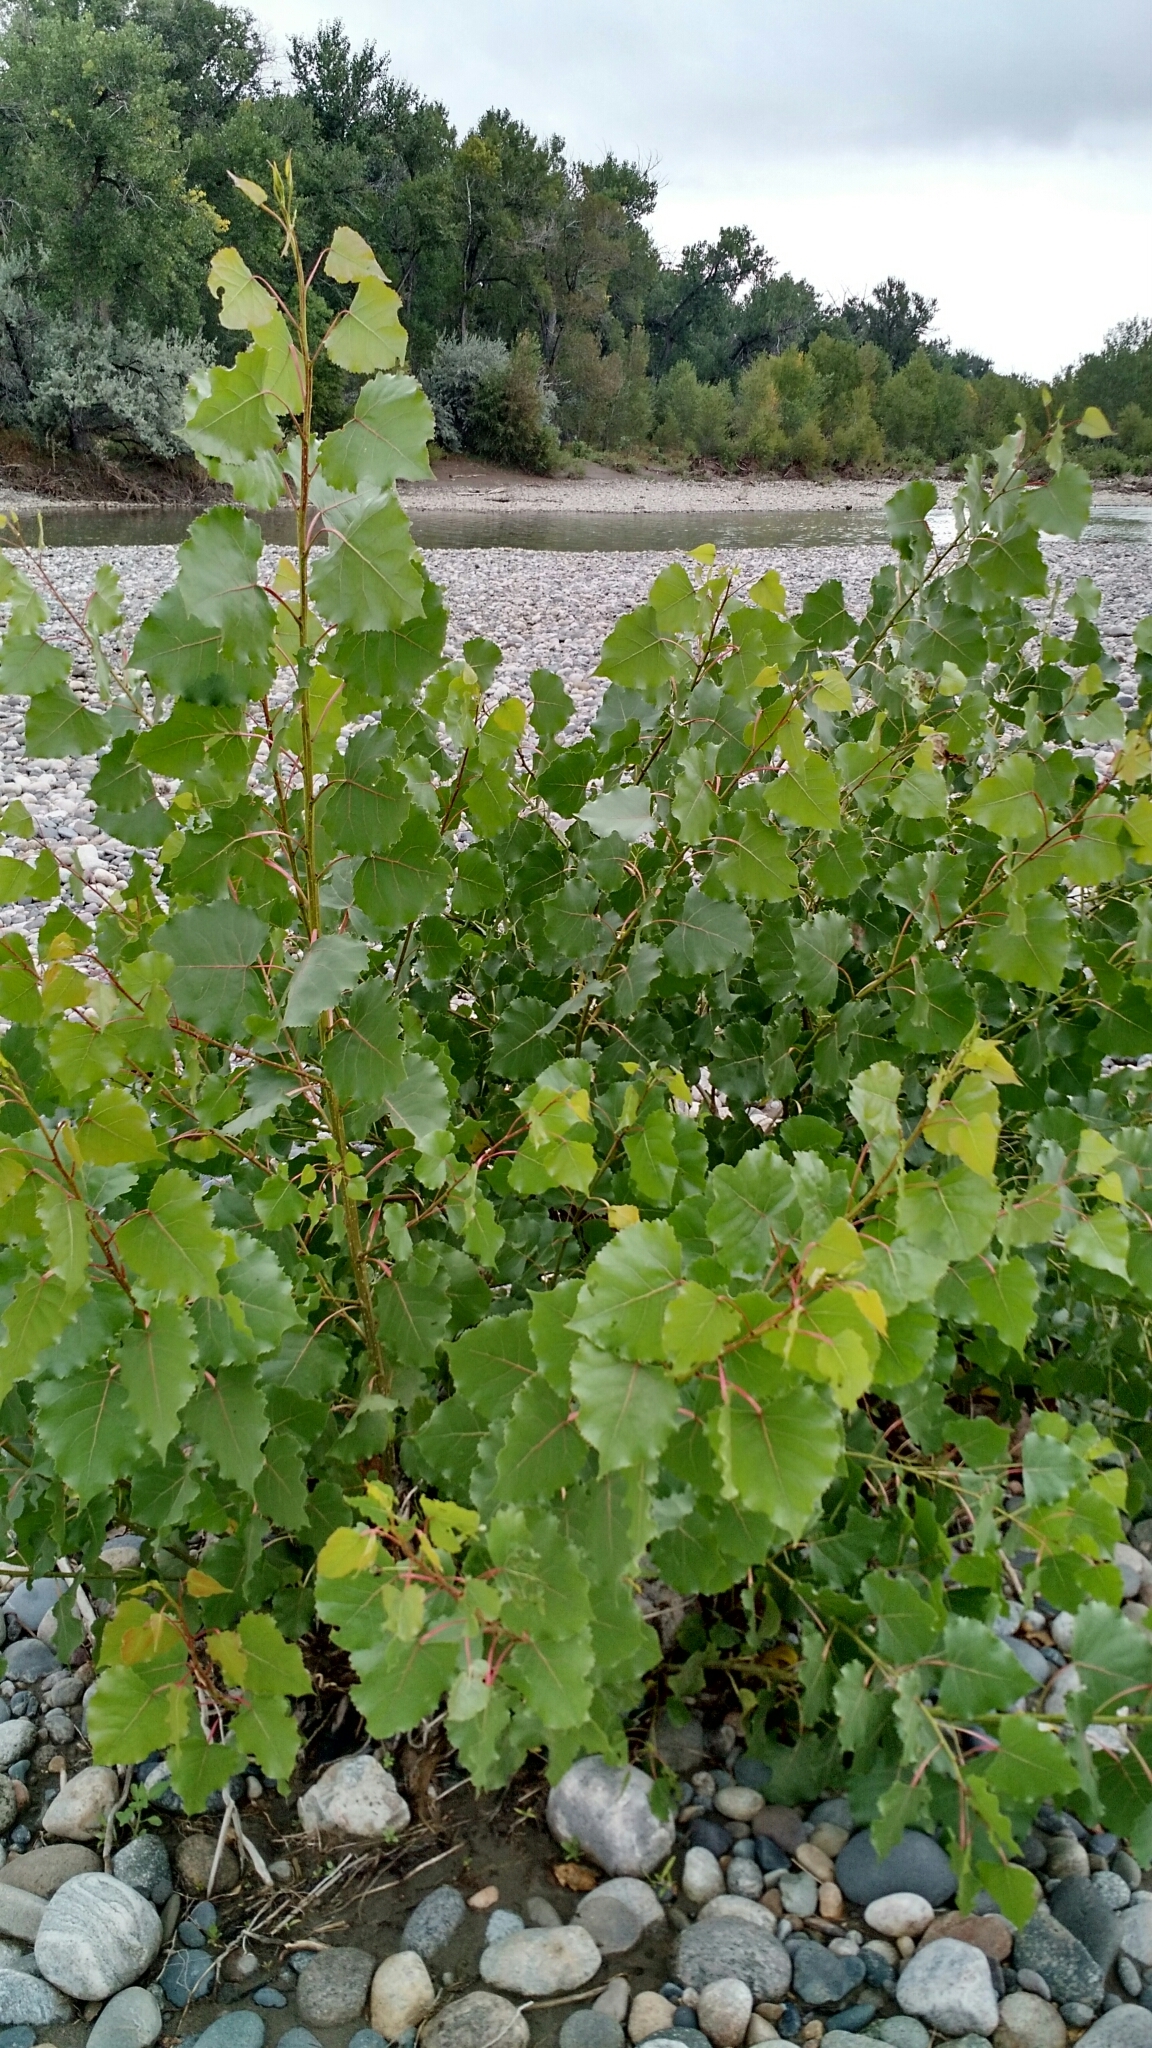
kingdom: Plantae
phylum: Tracheophyta
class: Magnoliopsida
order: Malpighiales
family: Salicaceae
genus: Populus
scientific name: Populus deltoides
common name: Eastern cottonwood
